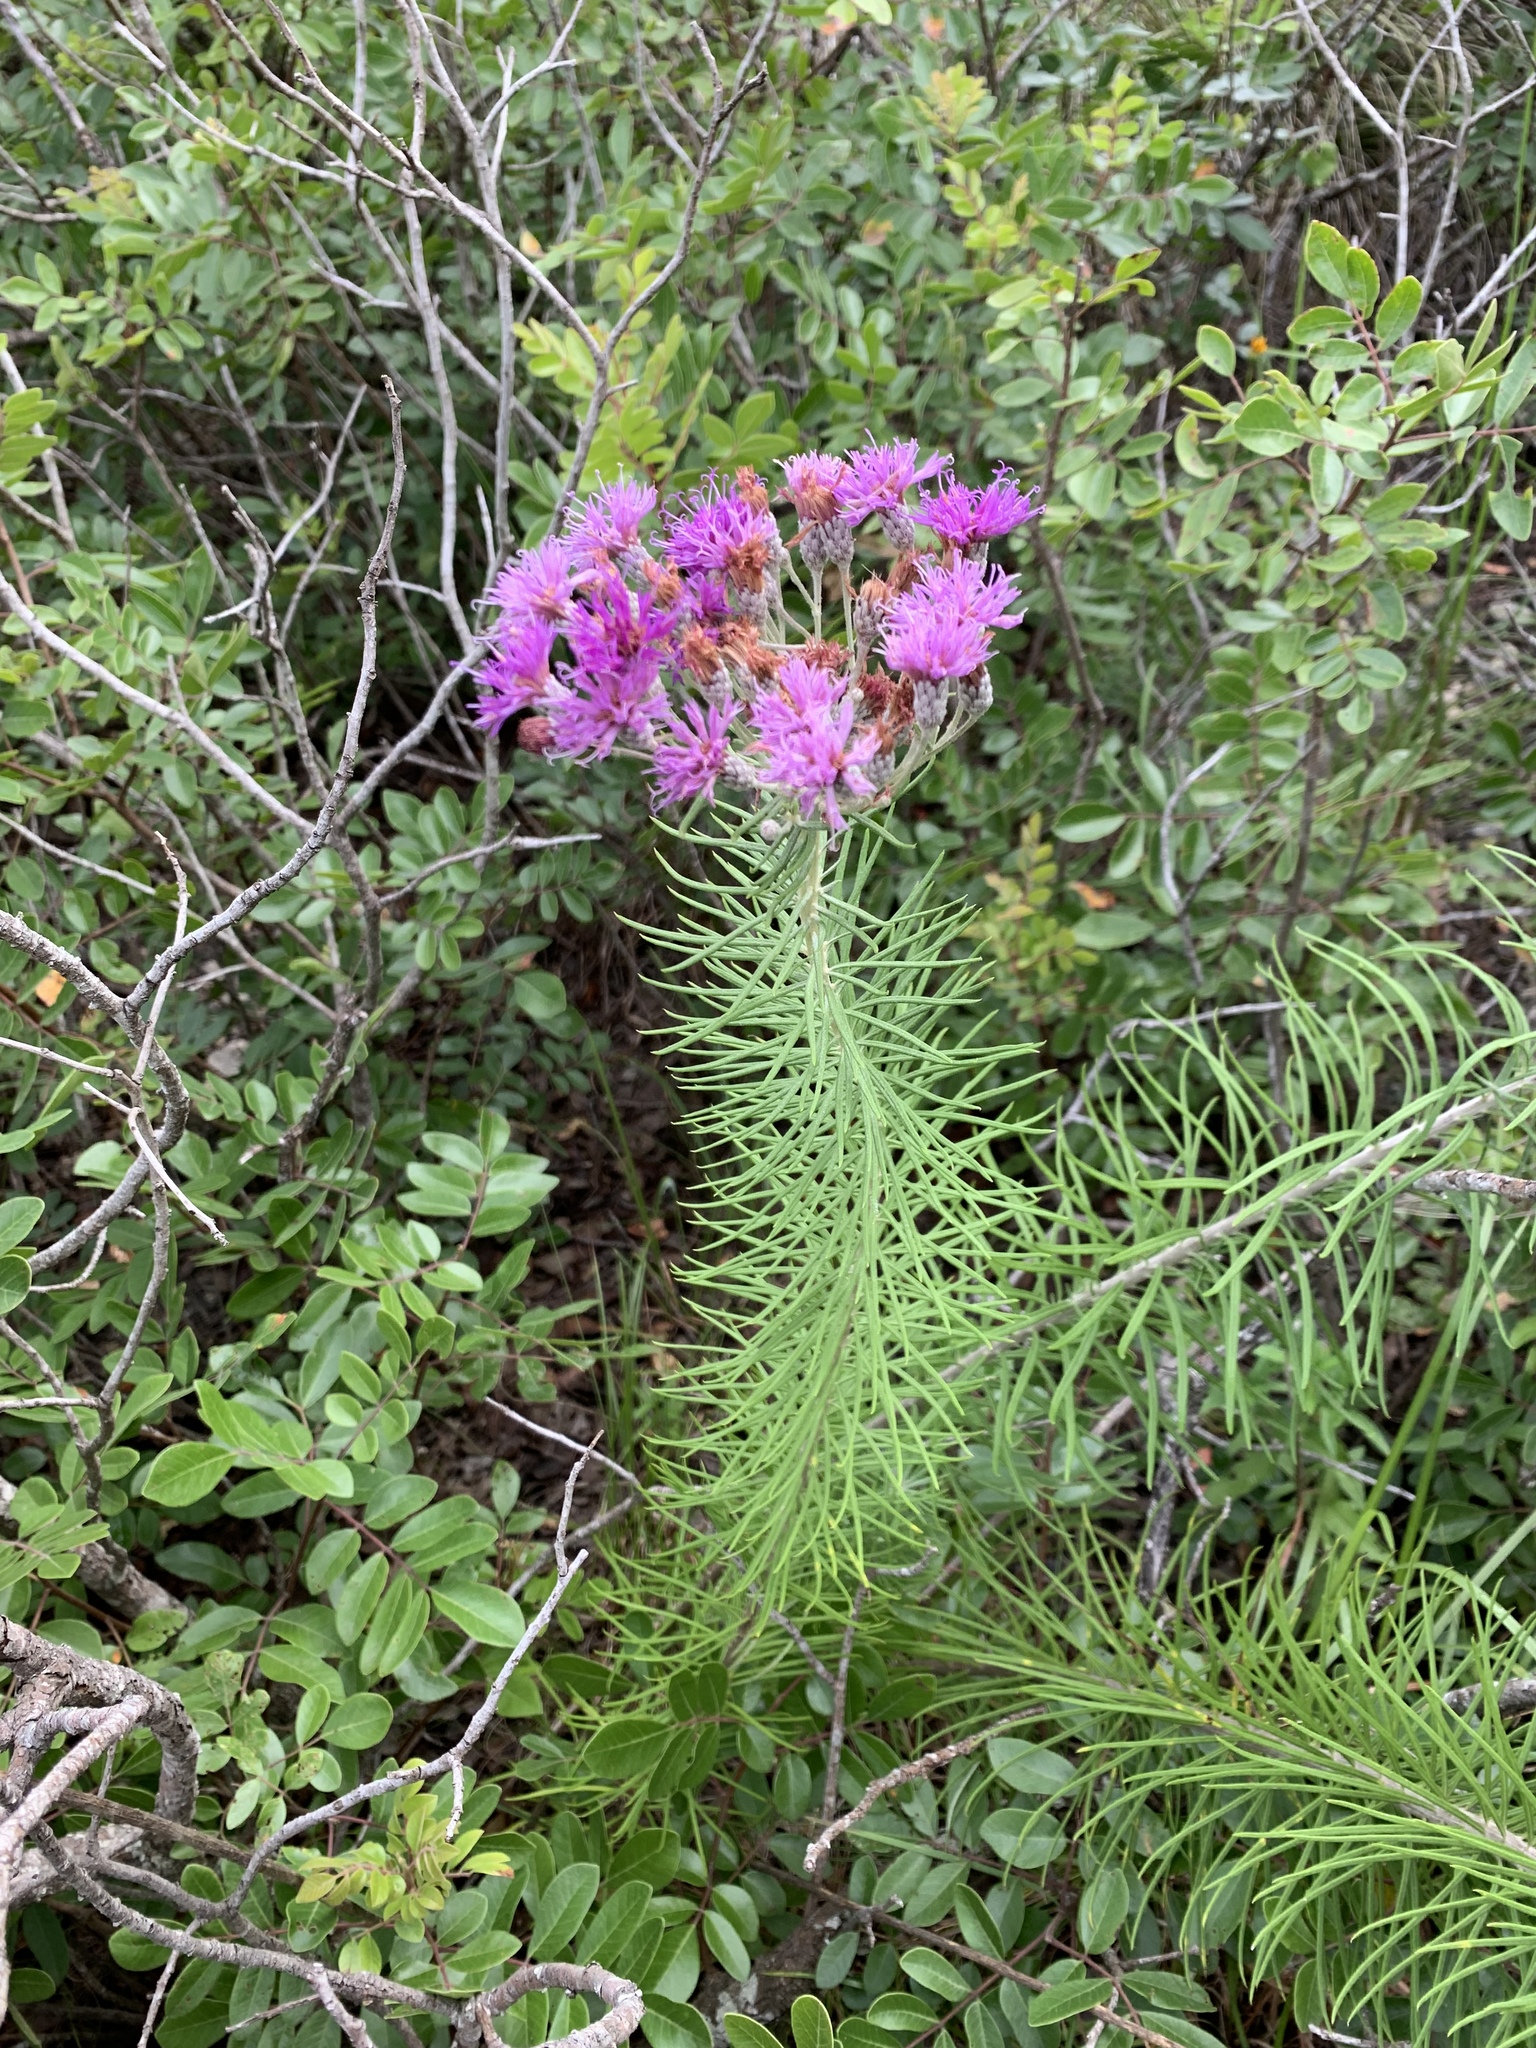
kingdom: Plantae
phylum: Tracheophyta
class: Magnoliopsida
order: Asterales
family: Asteraceae
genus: Vernonia
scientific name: Vernonia lindheimeri
